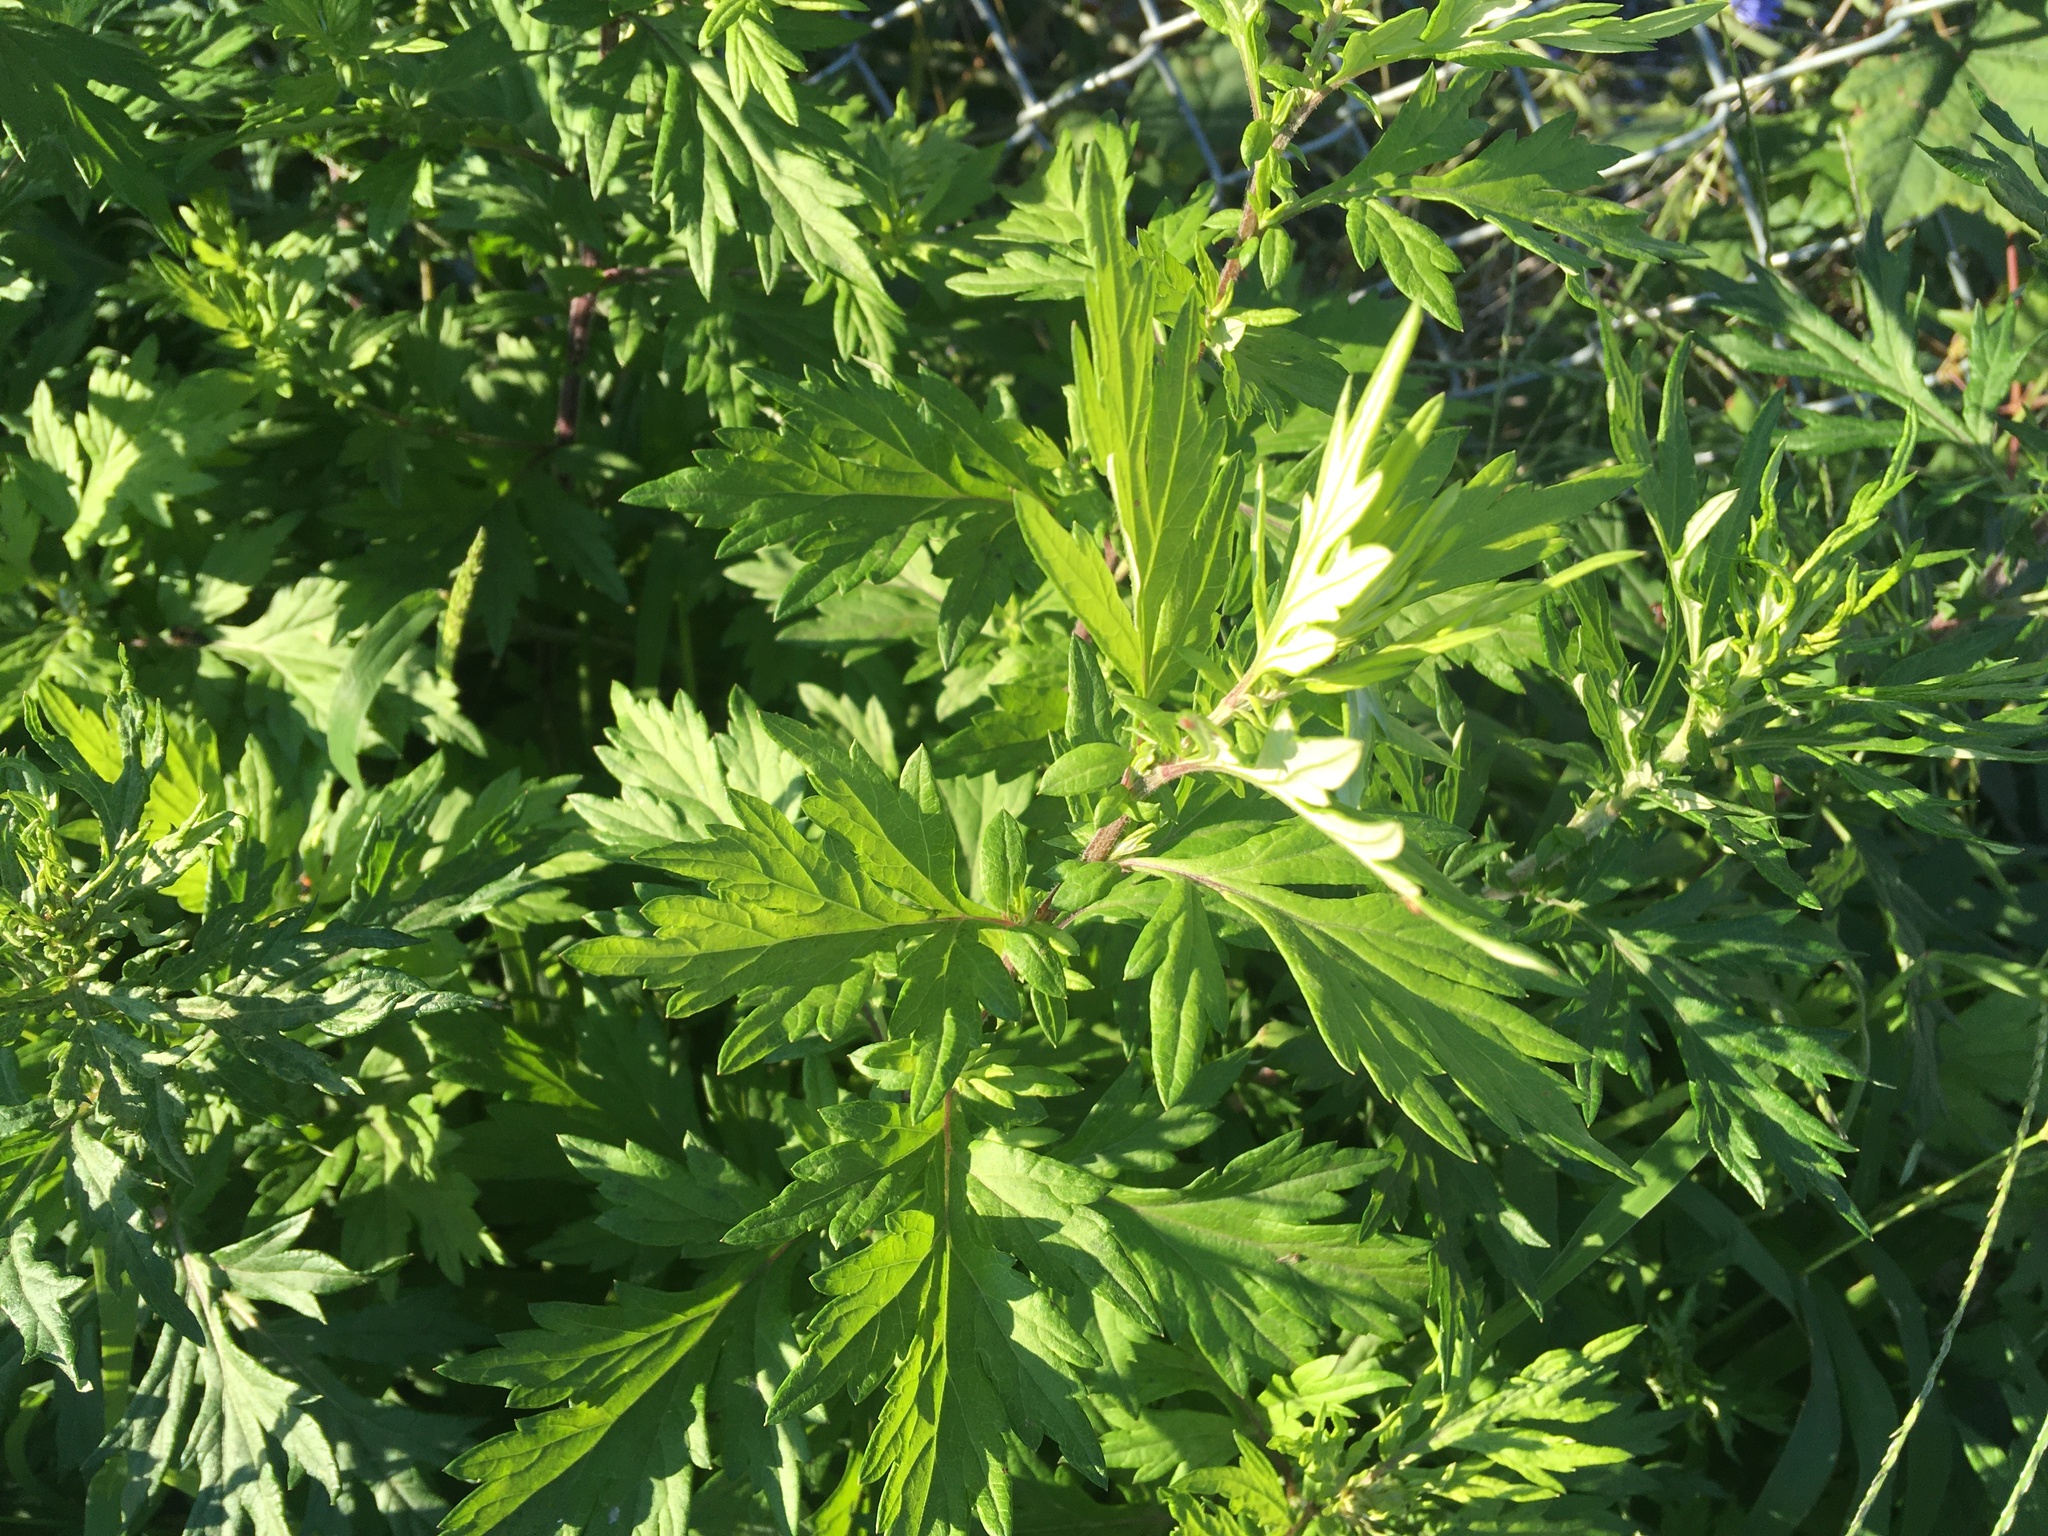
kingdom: Plantae
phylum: Tracheophyta
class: Magnoliopsida
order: Asterales
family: Asteraceae
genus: Artemisia
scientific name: Artemisia vulgaris
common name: Mugwort
